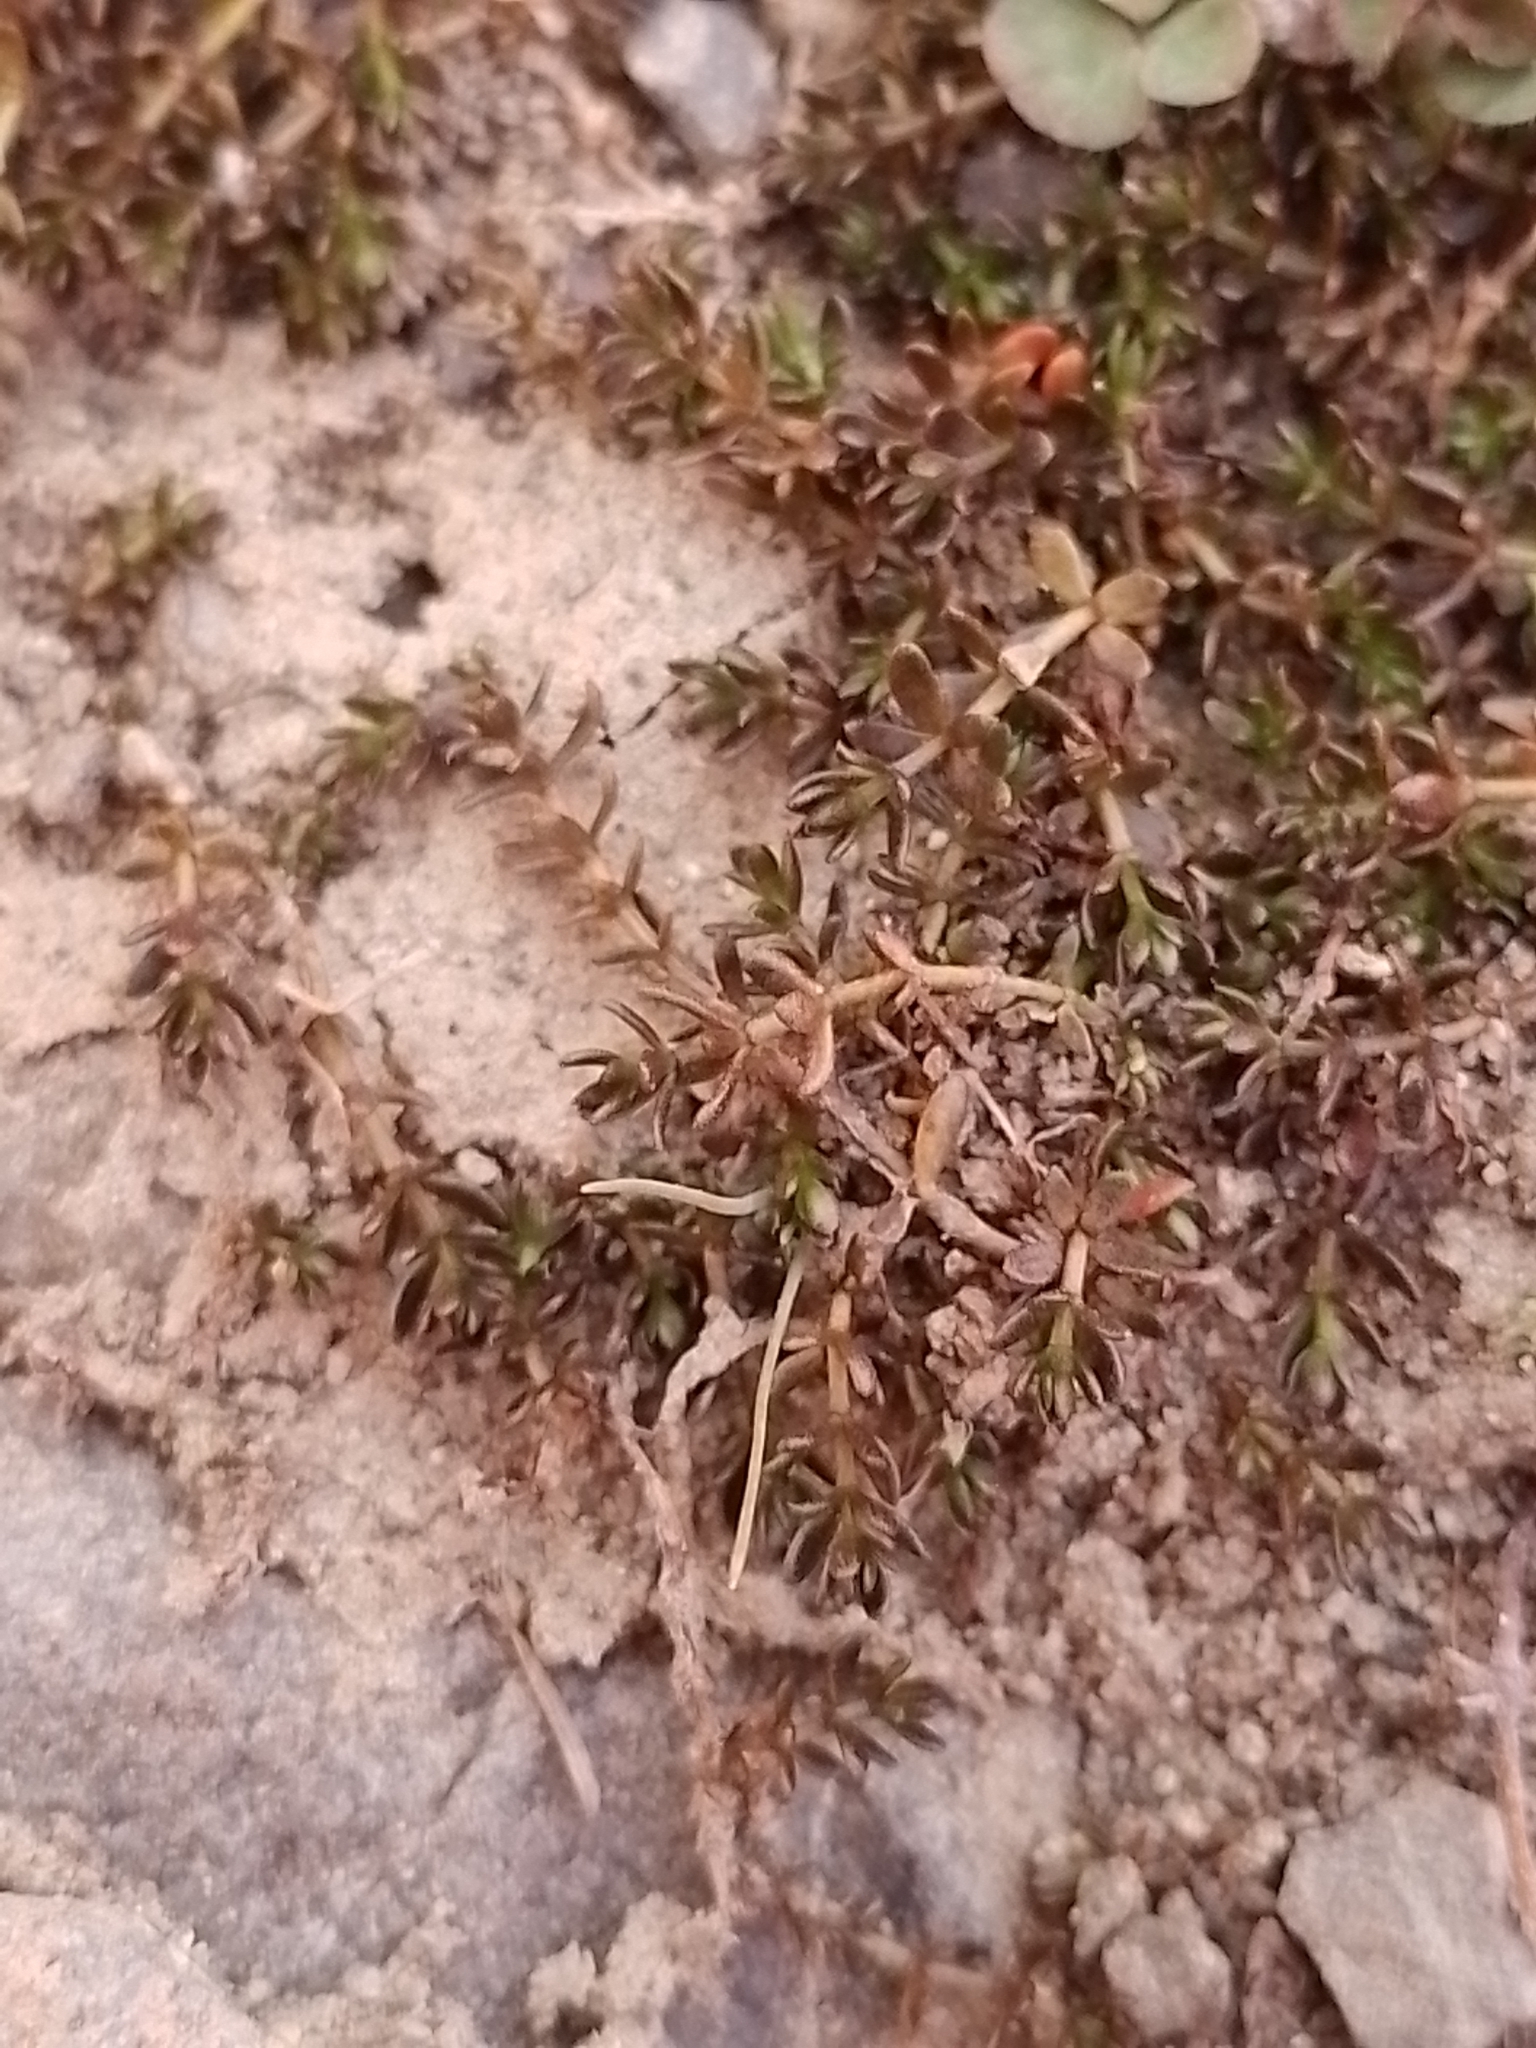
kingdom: Plantae
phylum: Tracheophyta
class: Magnoliopsida
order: Gentianales
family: Rubiaceae
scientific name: Rubiaceae
